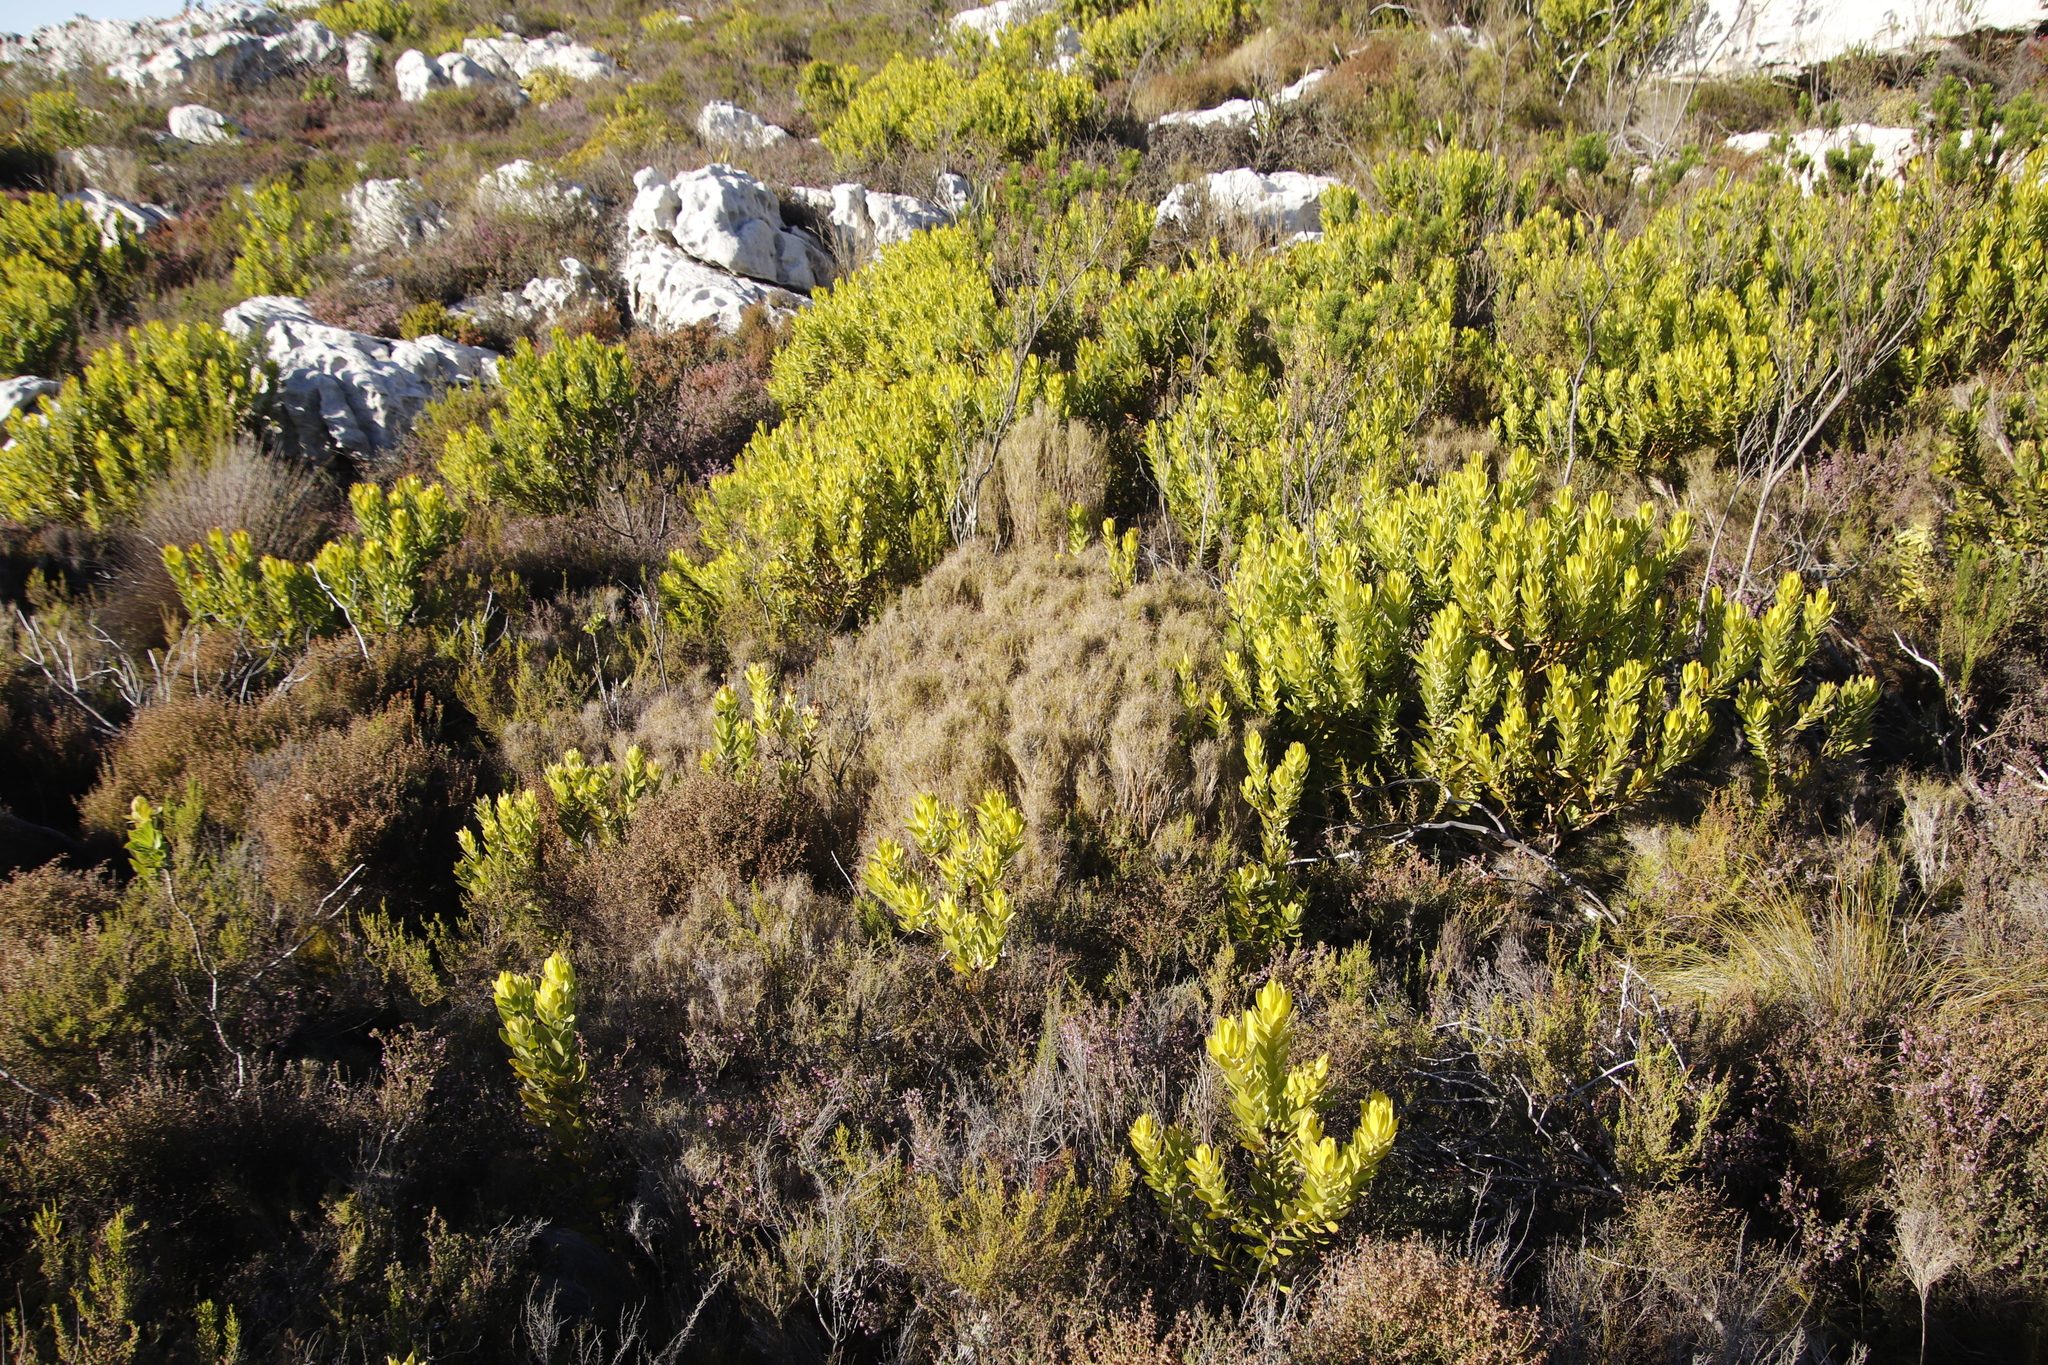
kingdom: Plantae
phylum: Tracheophyta
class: Magnoliopsida
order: Proteales
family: Proteaceae
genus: Leucadendron
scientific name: Leucadendron laureolum
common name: Golden sunshinebush
